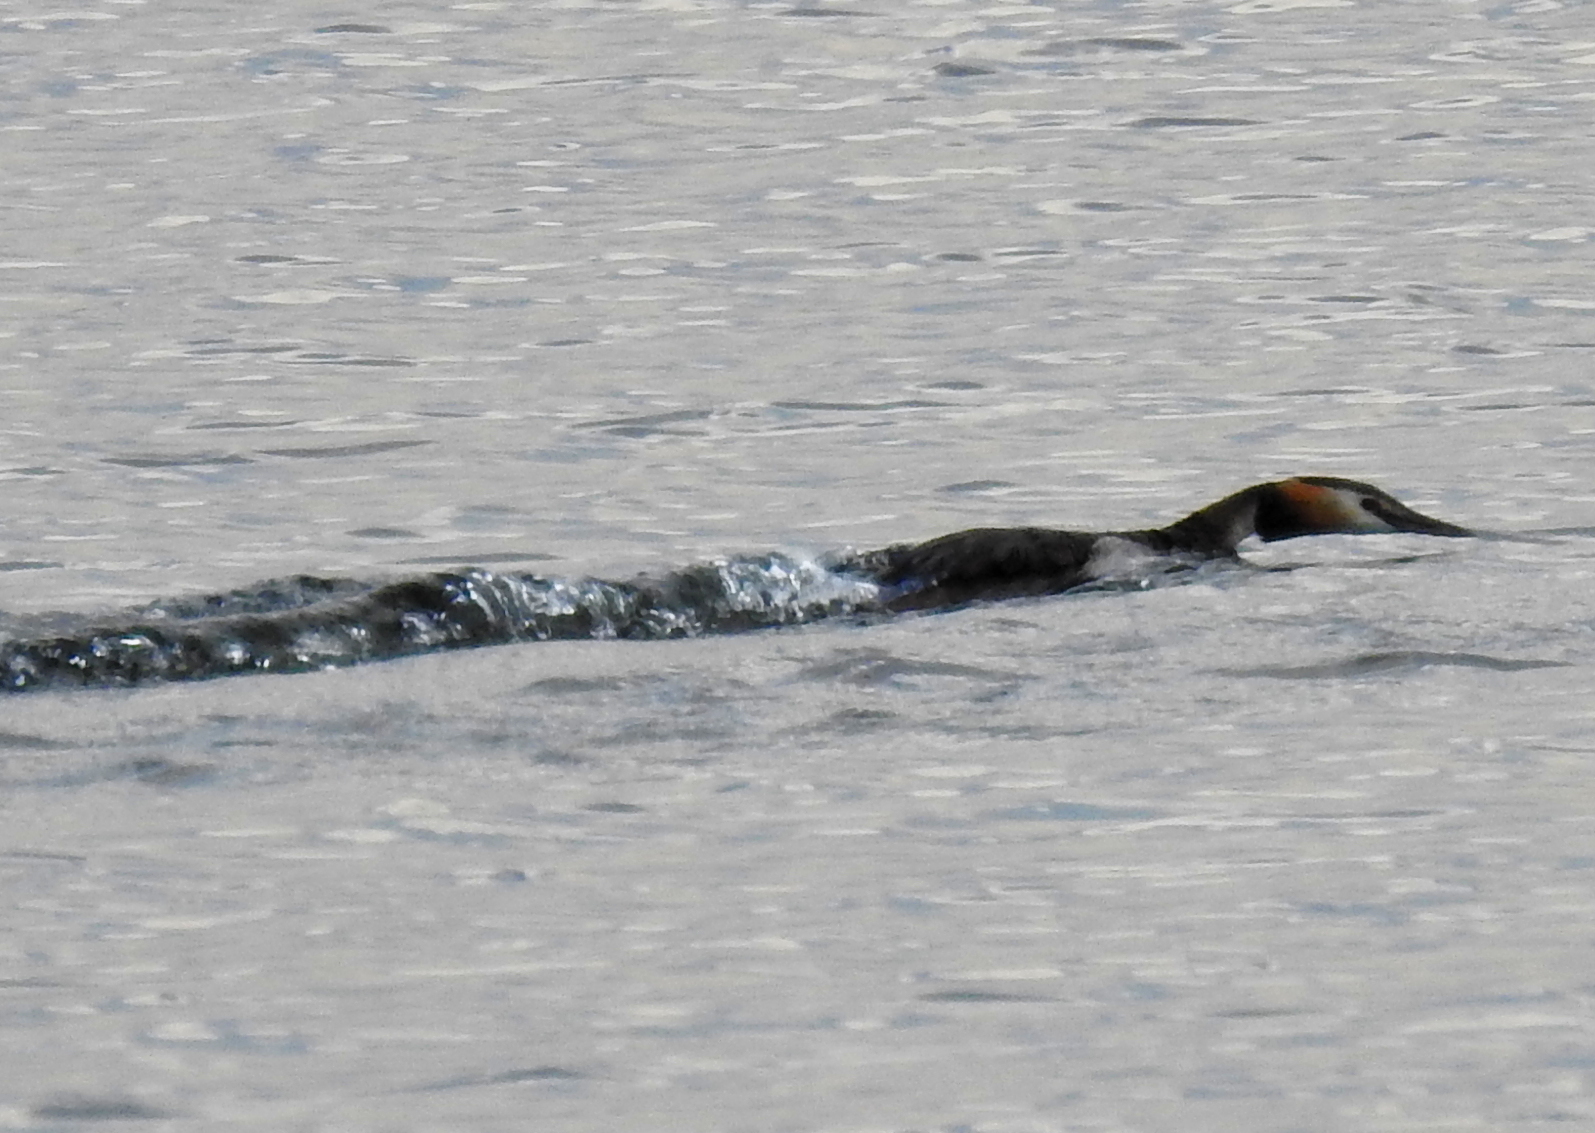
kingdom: Animalia
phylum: Chordata
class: Aves
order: Podicipediformes
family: Podicipedidae
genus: Podiceps
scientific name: Podiceps cristatus
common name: Great crested grebe
